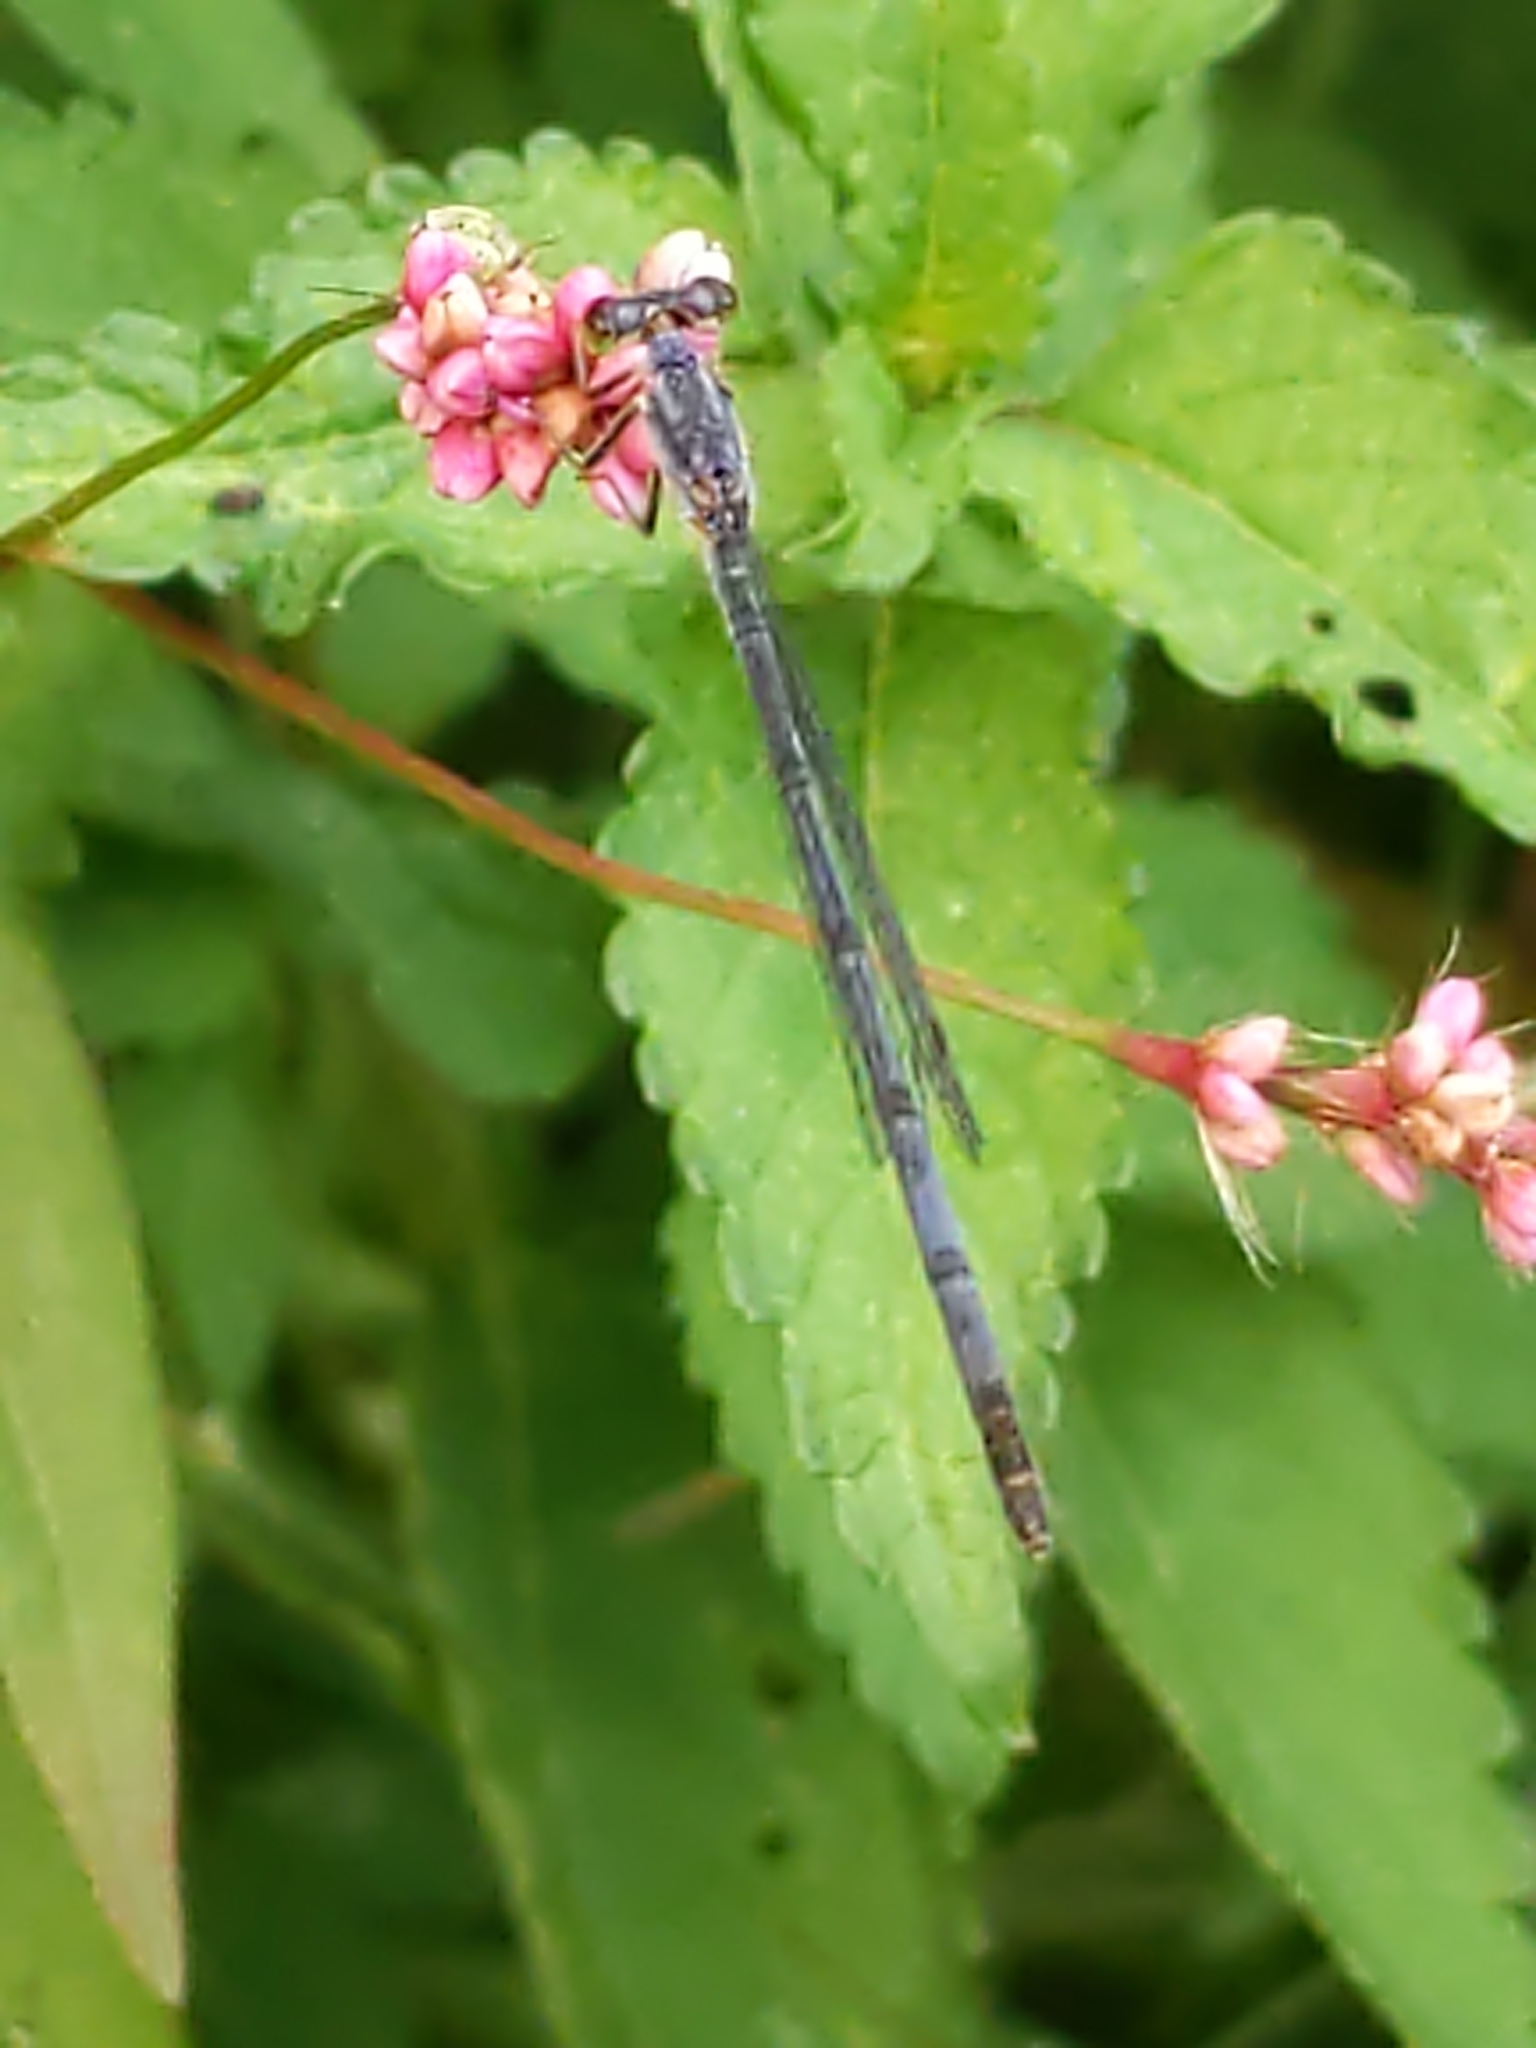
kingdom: Animalia
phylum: Arthropoda
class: Insecta
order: Odonata
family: Coenagrionidae
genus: Ischnura
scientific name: Ischnura posita
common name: Fragile forktail
